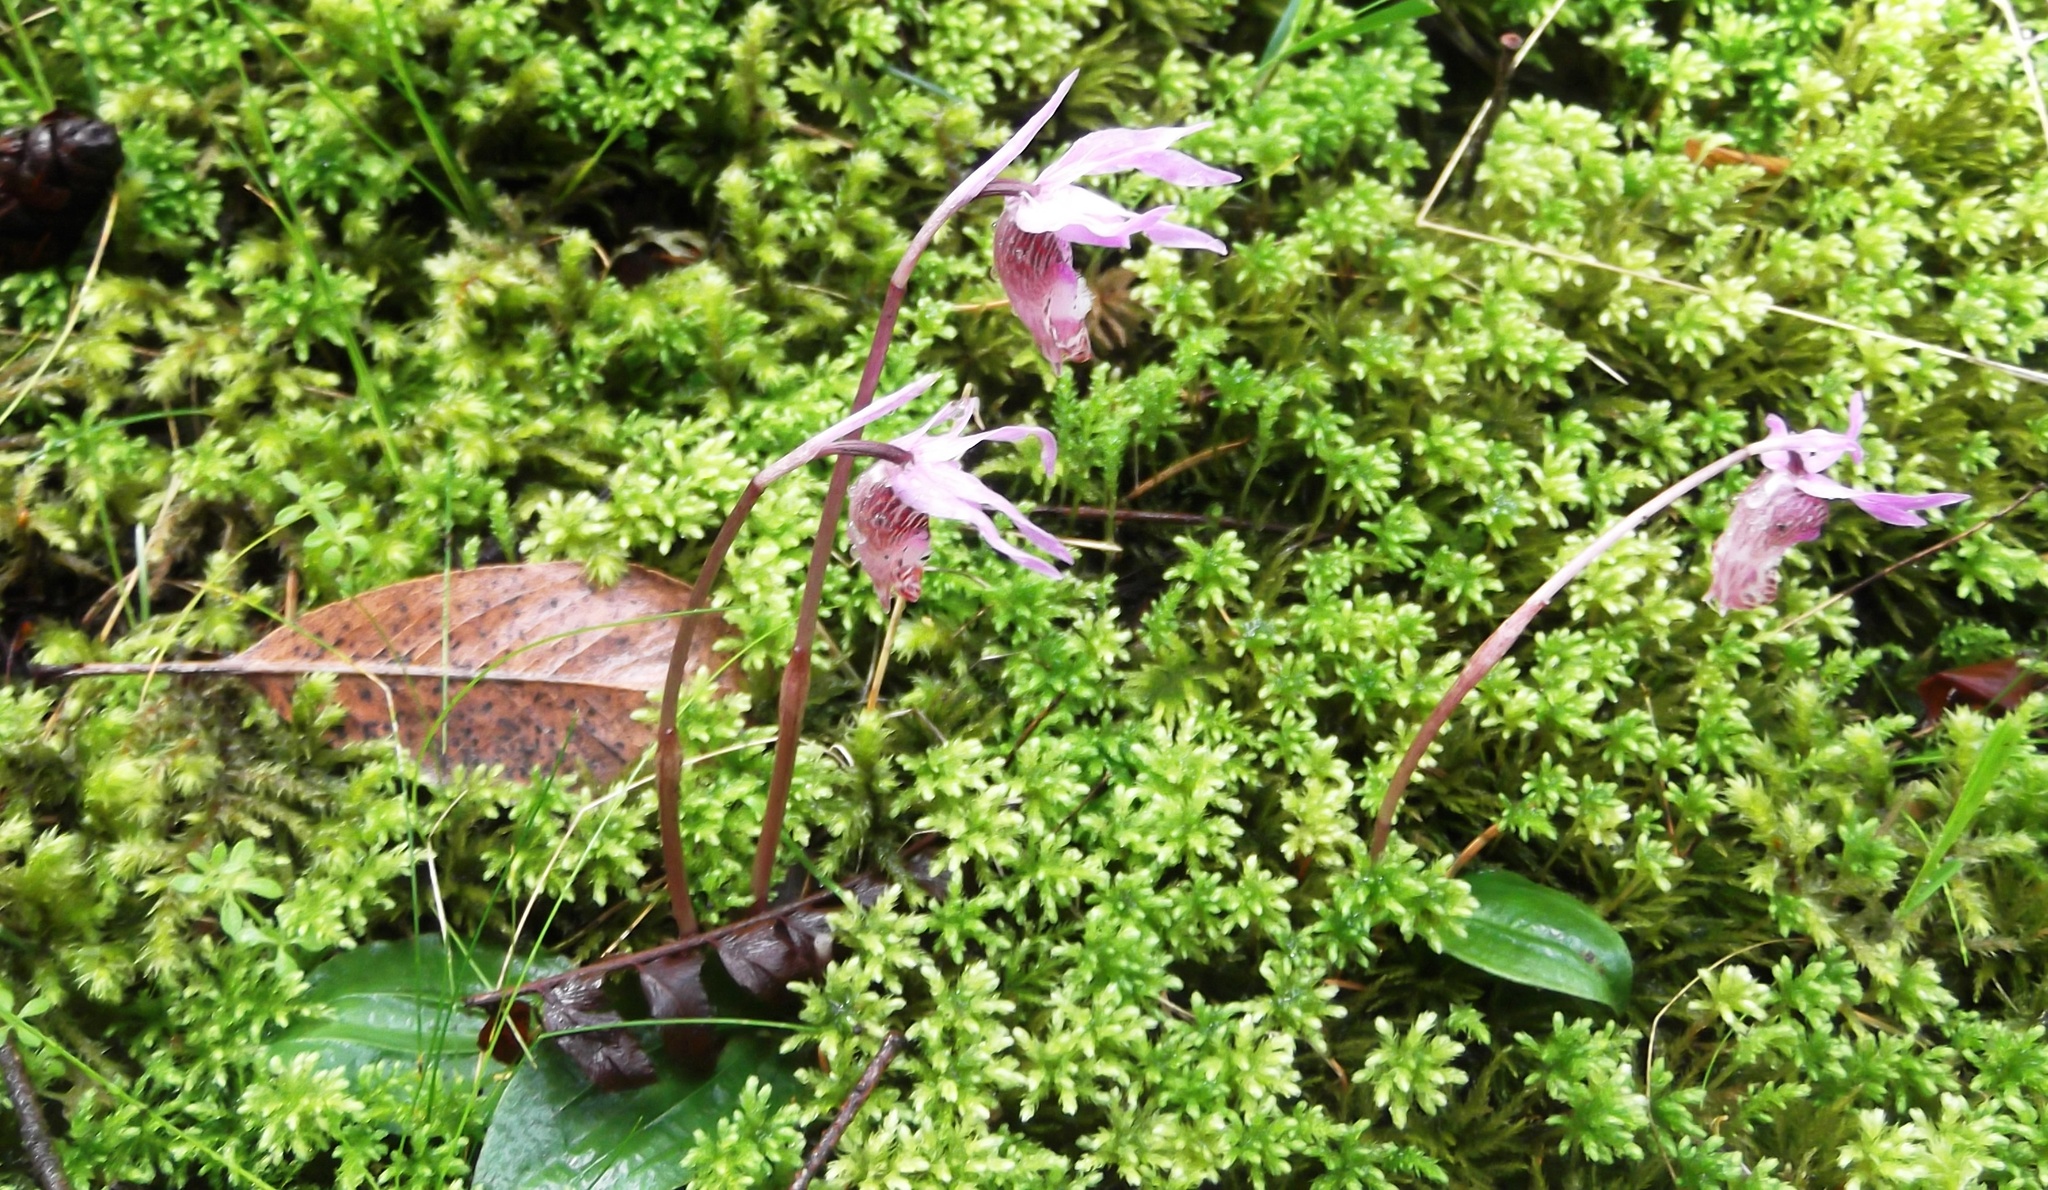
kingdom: Plantae
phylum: Tracheophyta
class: Liliopsida
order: Asparagales
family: Orchidaceae
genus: Calypso
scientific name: Calypso bulbosa
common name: Calypso
